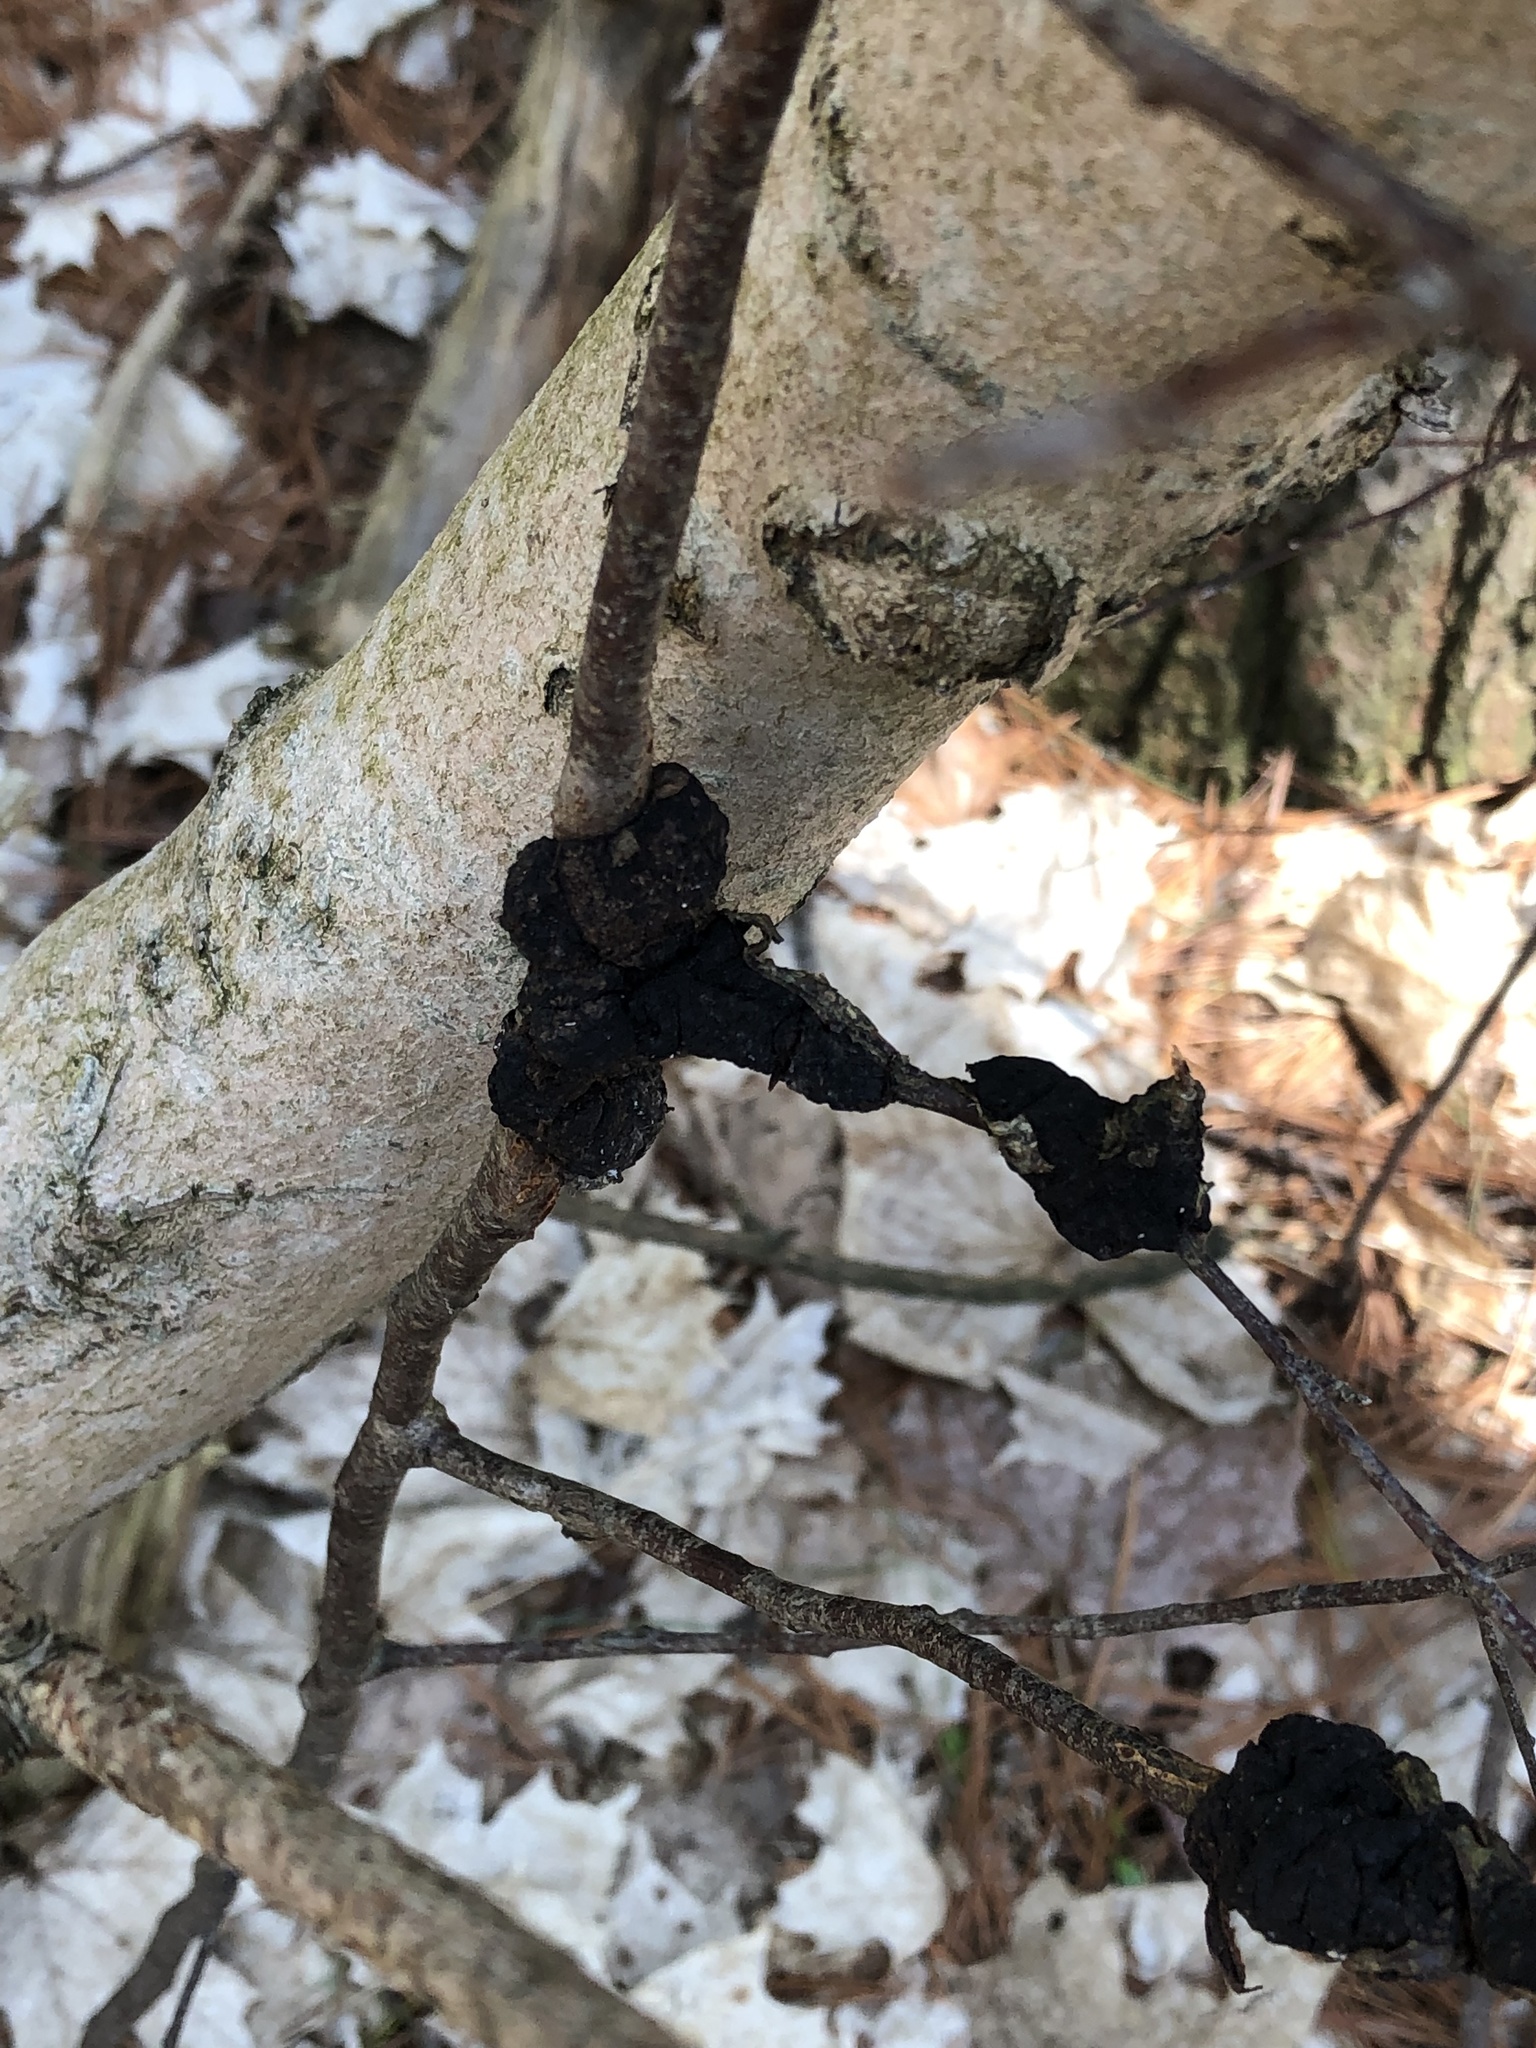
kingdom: Fungi
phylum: Ascomycota
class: Dothideomycetes
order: Venturiales
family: Venturiaceae
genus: Apiosporina
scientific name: Apiosporina morbosa
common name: Black knot
